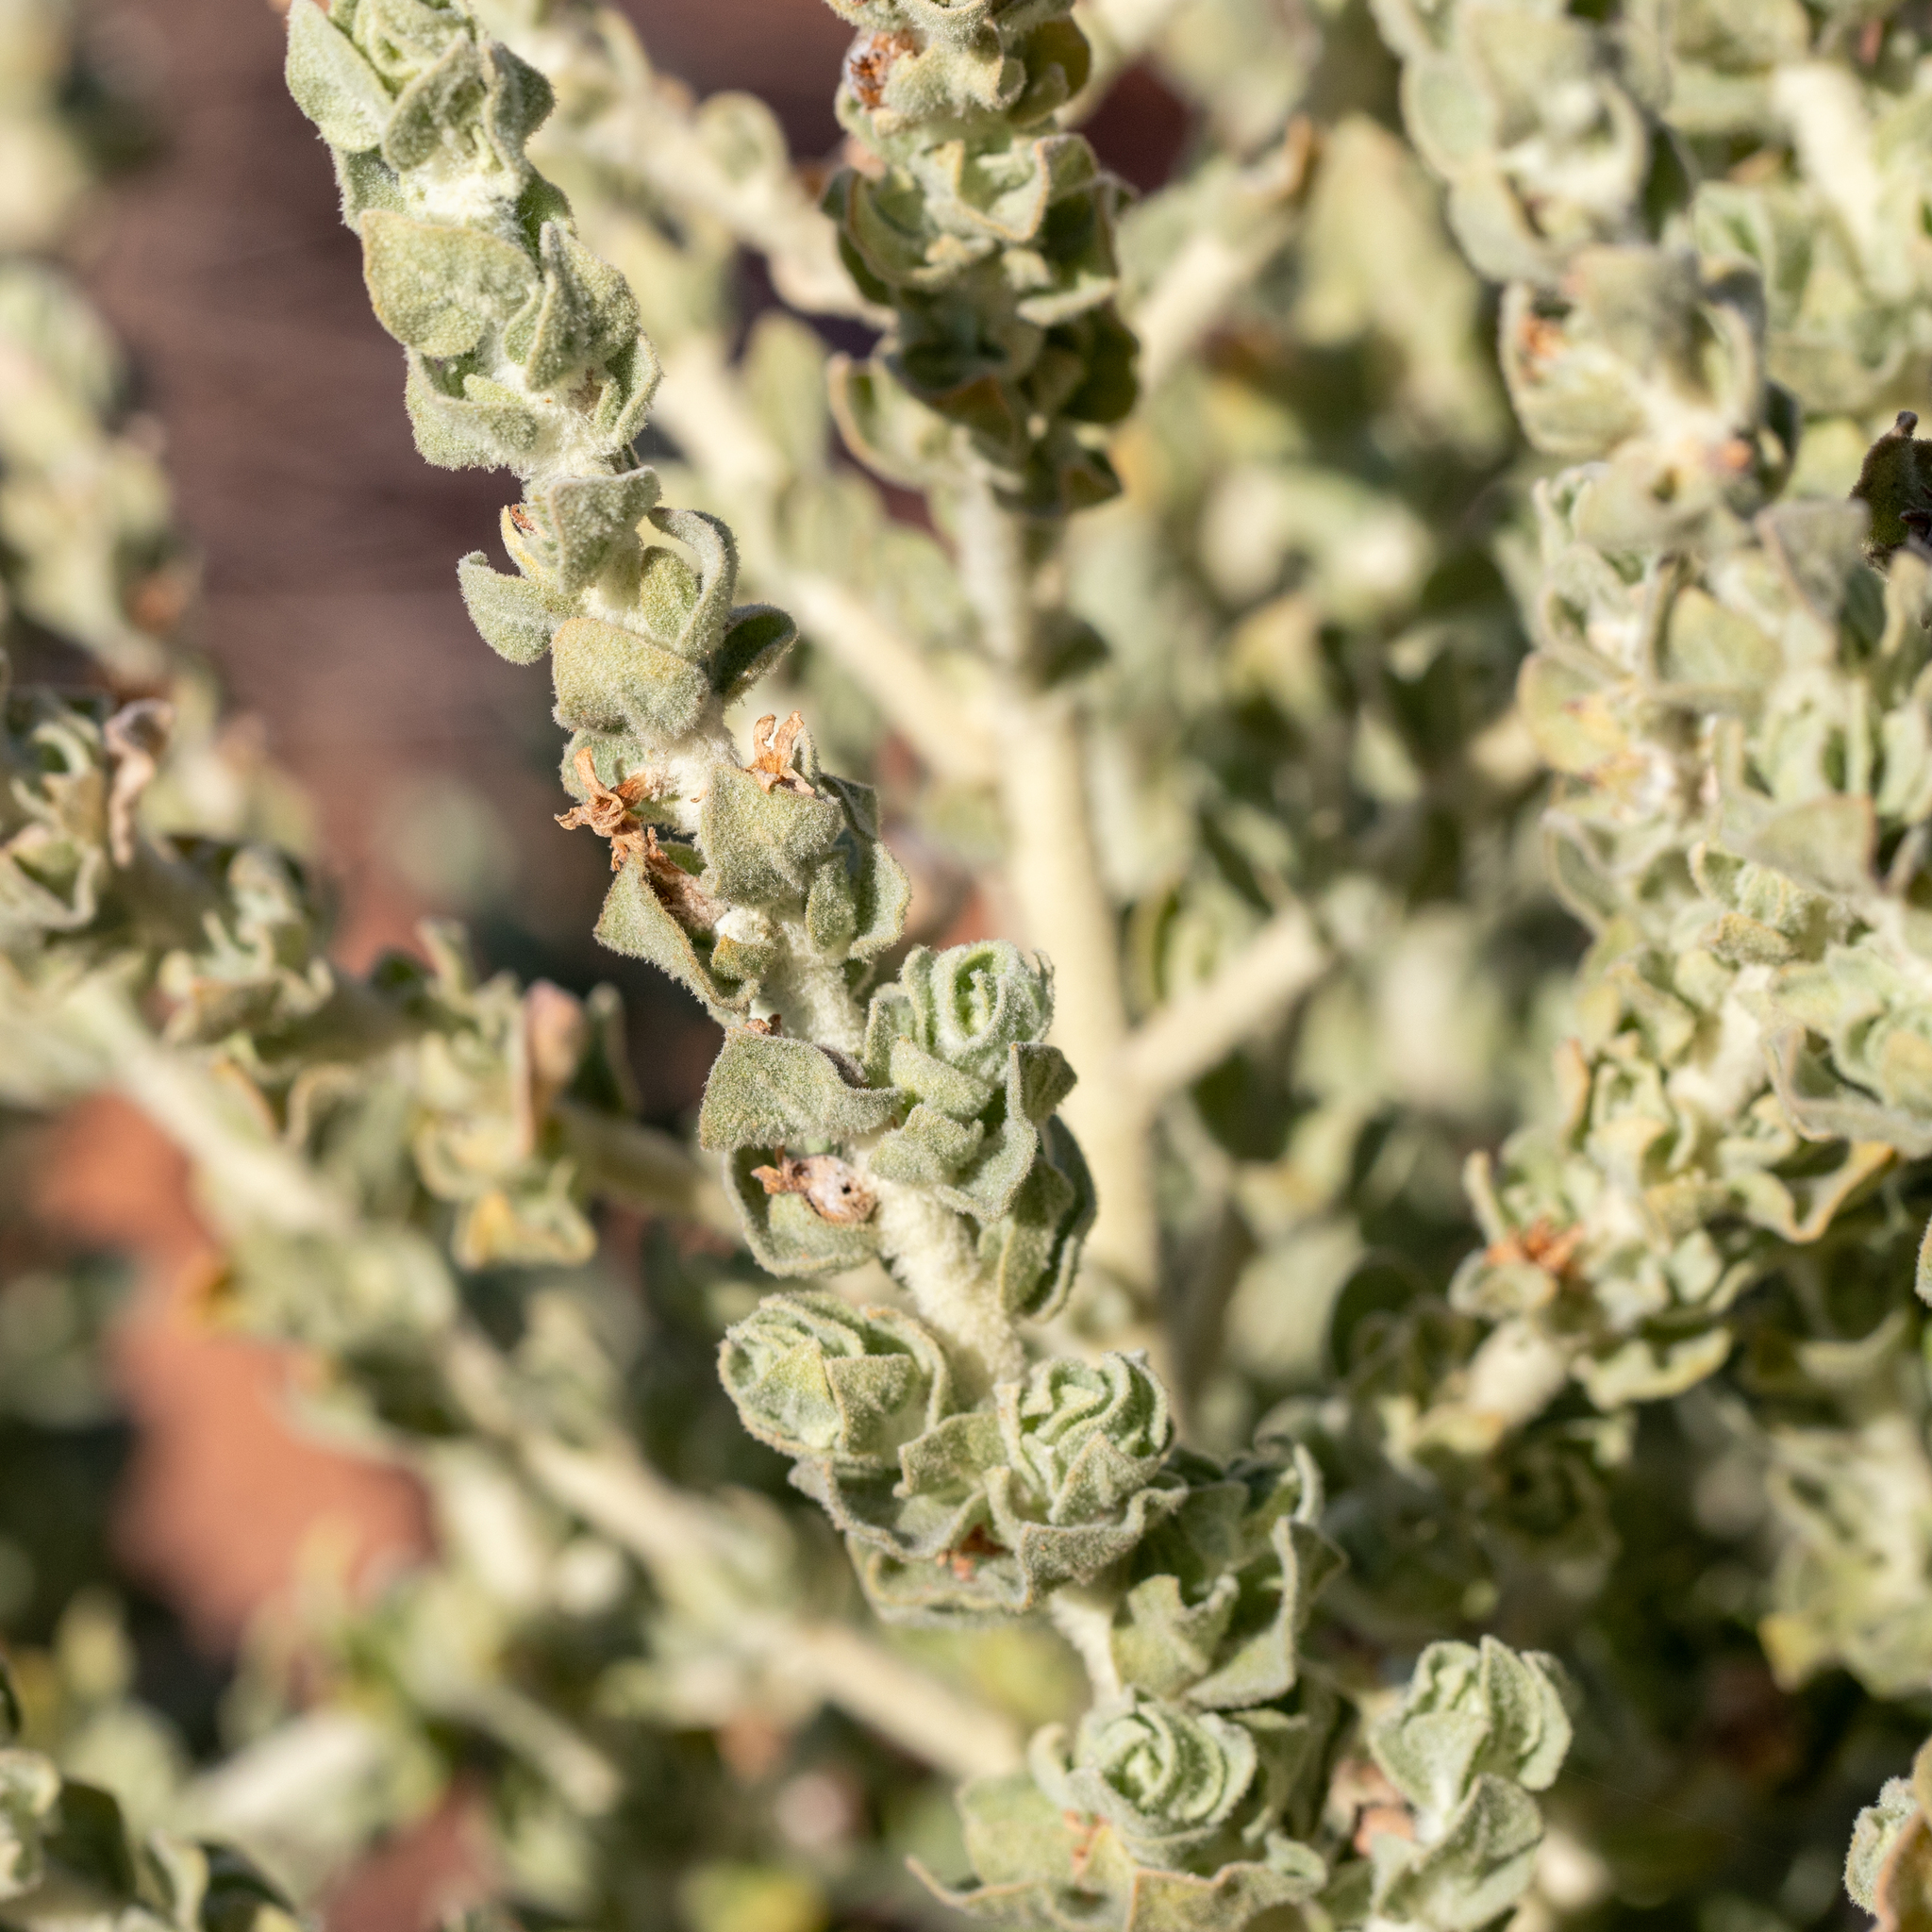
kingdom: Plantae
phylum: Tracheophyta
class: Magnoliopsida
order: Solanales
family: Solanaceae
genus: Grammosolen
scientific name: Grammosolen dixonii
